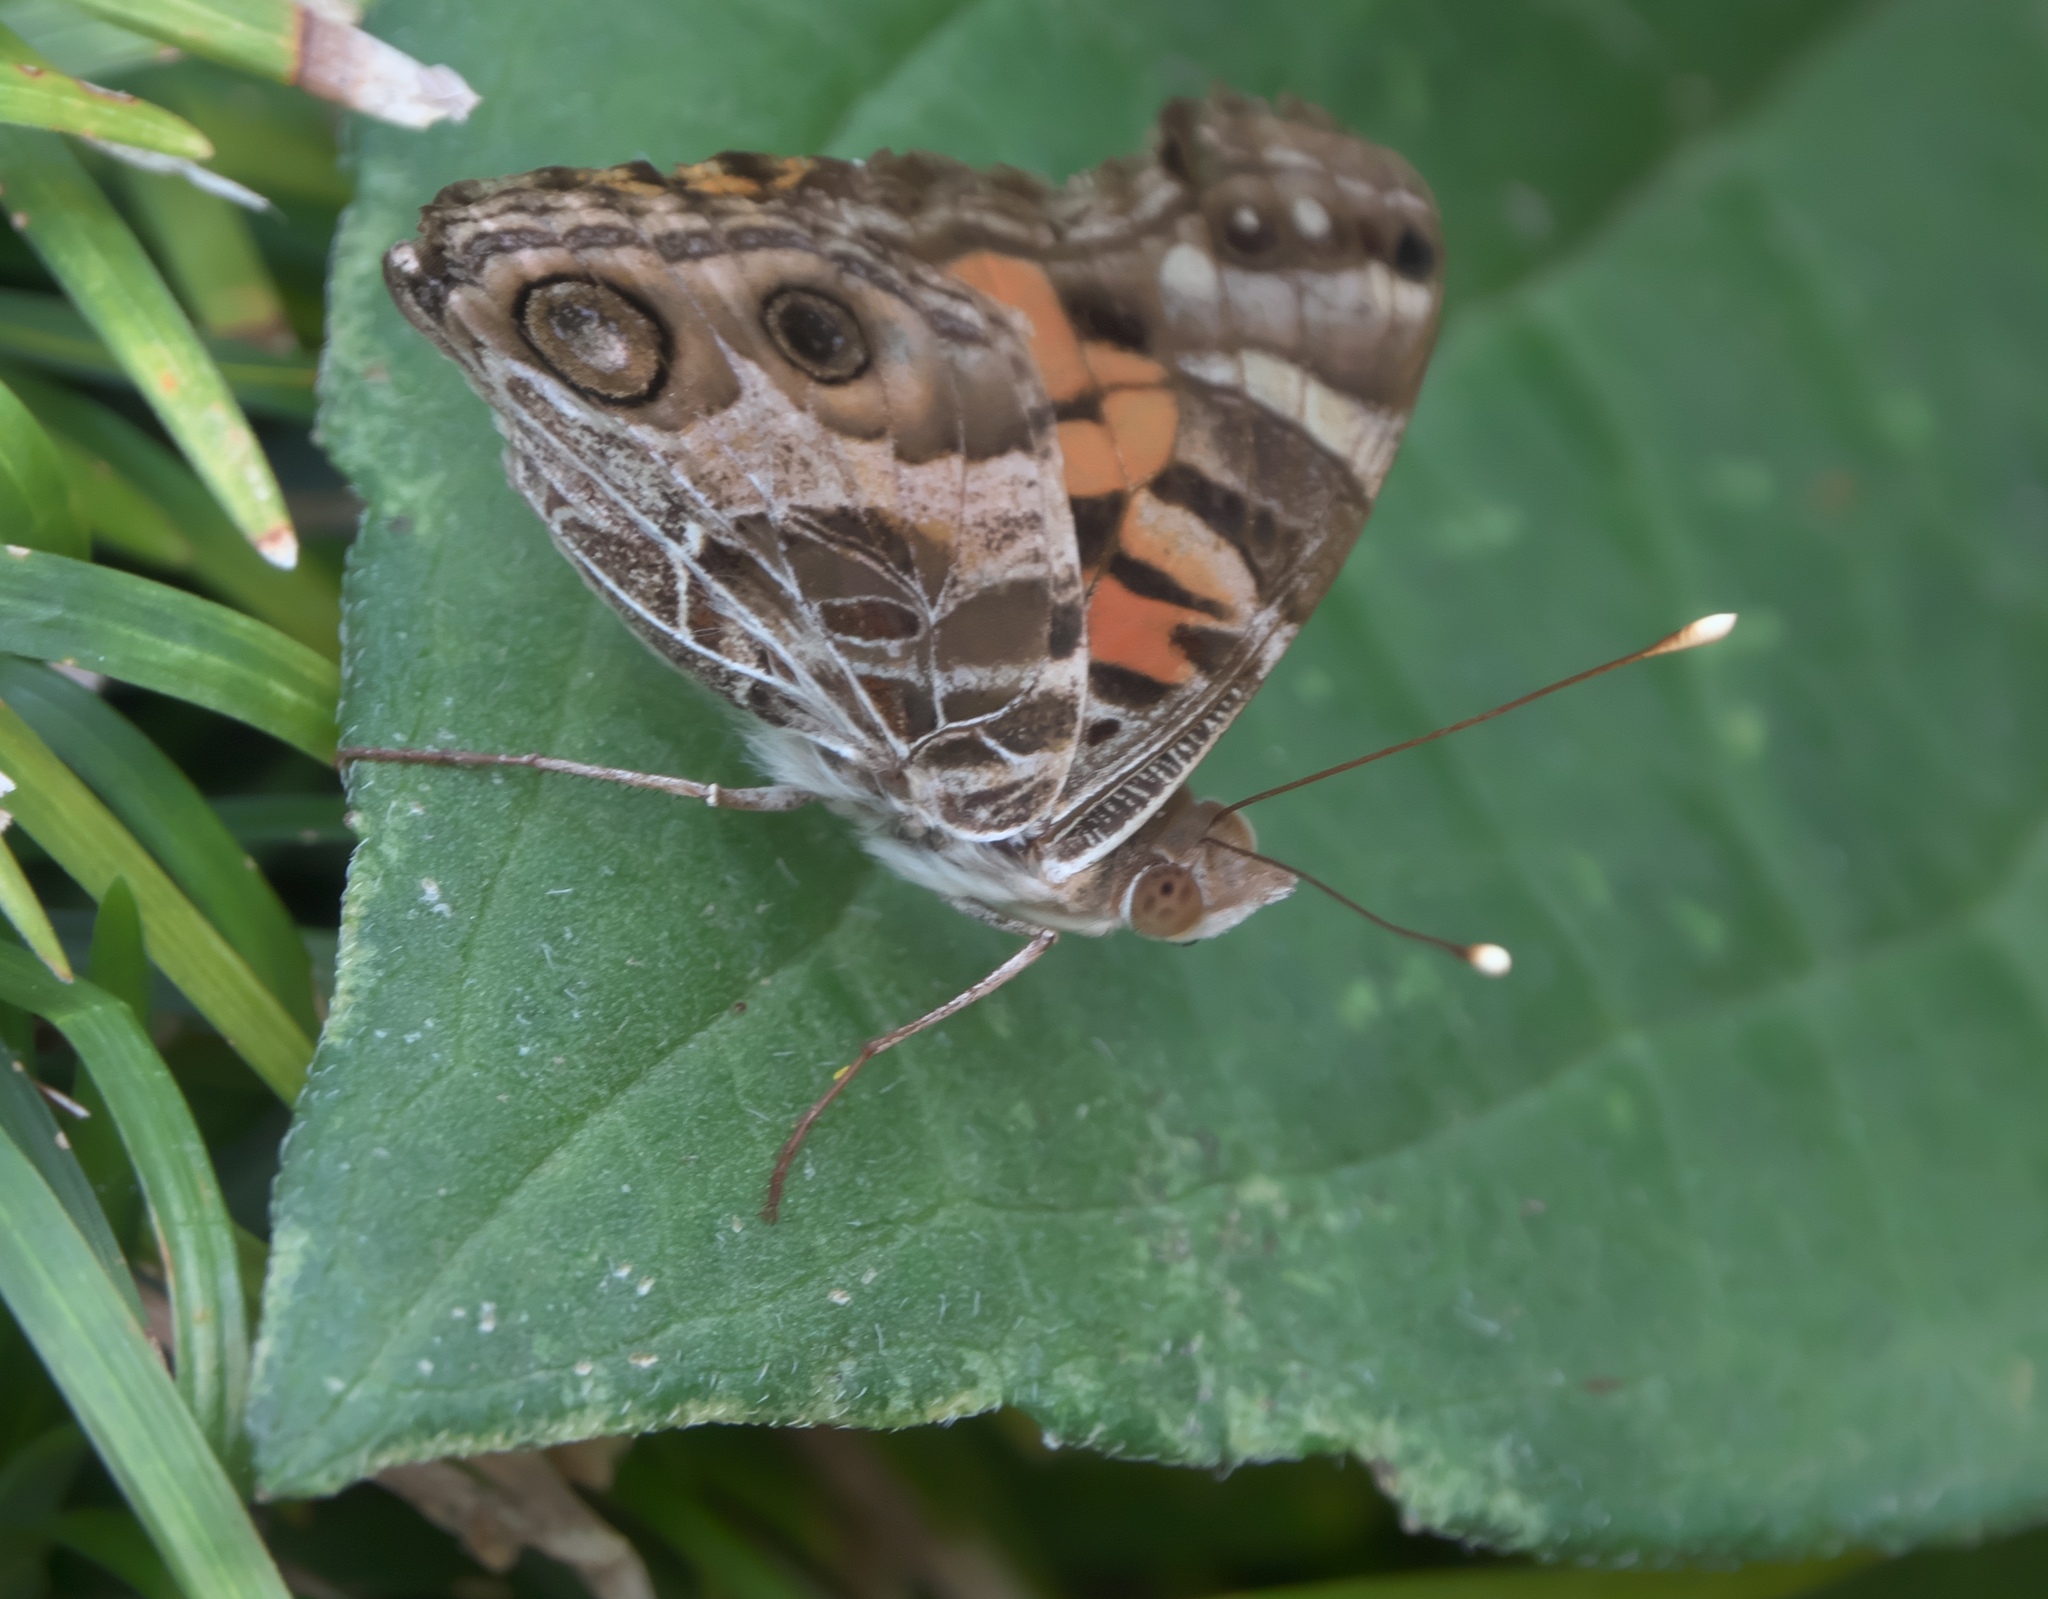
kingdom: Animalia
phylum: Arthropoda
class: Insecta
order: Lepidoptera
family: Nymphalidae
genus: Vanessa
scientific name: Vanessa virginiensis
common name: American lady
